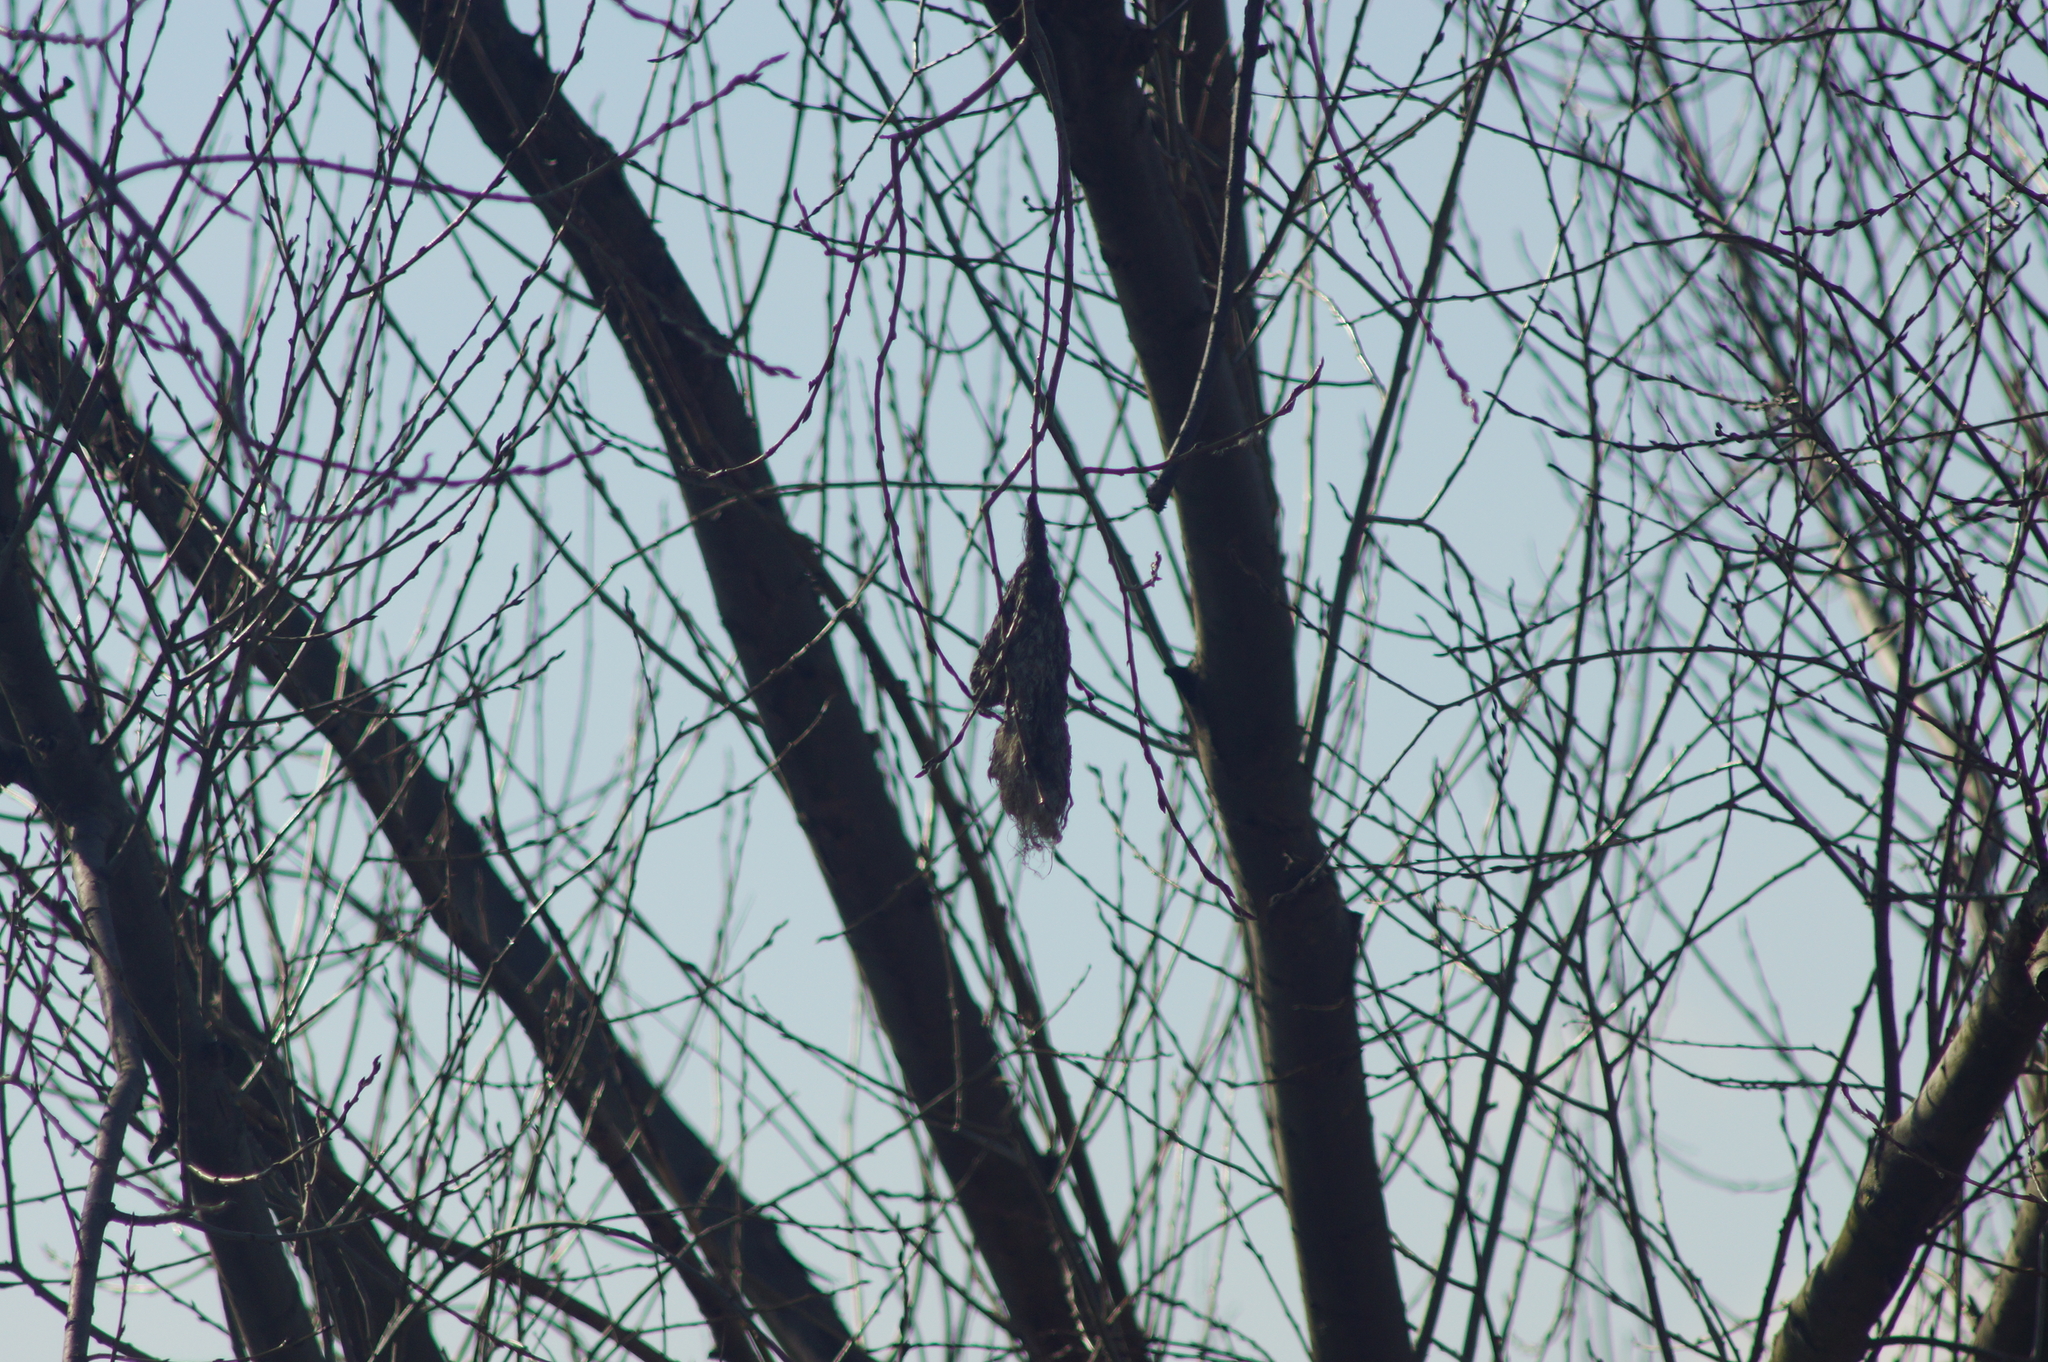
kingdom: Animalia
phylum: Chordata
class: Aves
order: Passeriformes
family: Remizidae
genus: Remiz
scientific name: Remiz pendulinus
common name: Eurasian penduline tit
